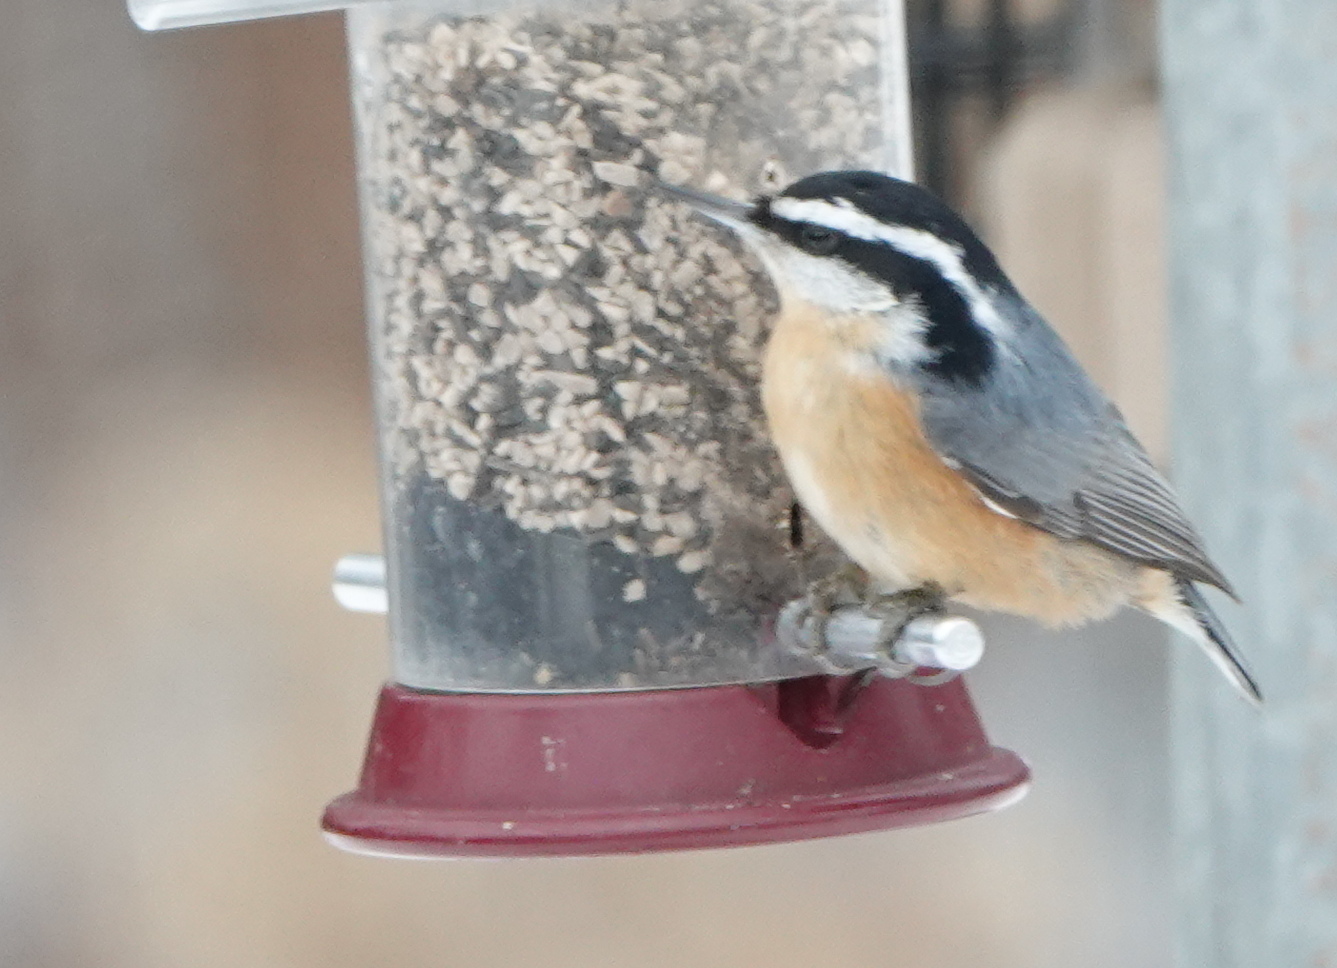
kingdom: Animalia
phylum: Chordata
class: Aves
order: Passeriformes
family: Sittidae
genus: Sitta
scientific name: Sitta canadensis
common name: Red-breasted nuthatch
